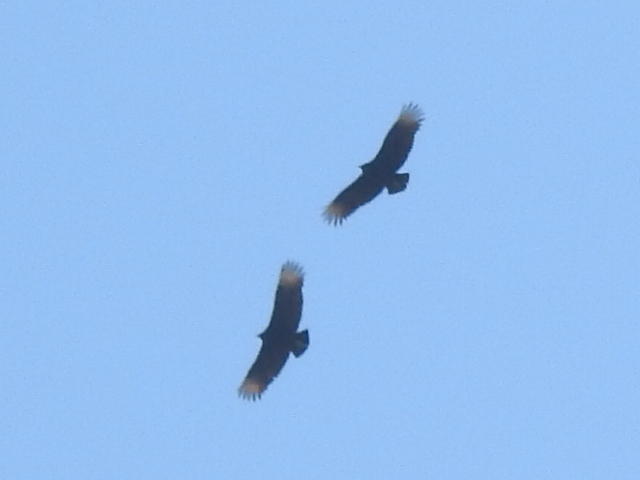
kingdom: Animalia
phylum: Chordata
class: Aves
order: Accipitriformes
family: Cathartidae
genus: Coragyps
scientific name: Coragyps atratus
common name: Black vulture
